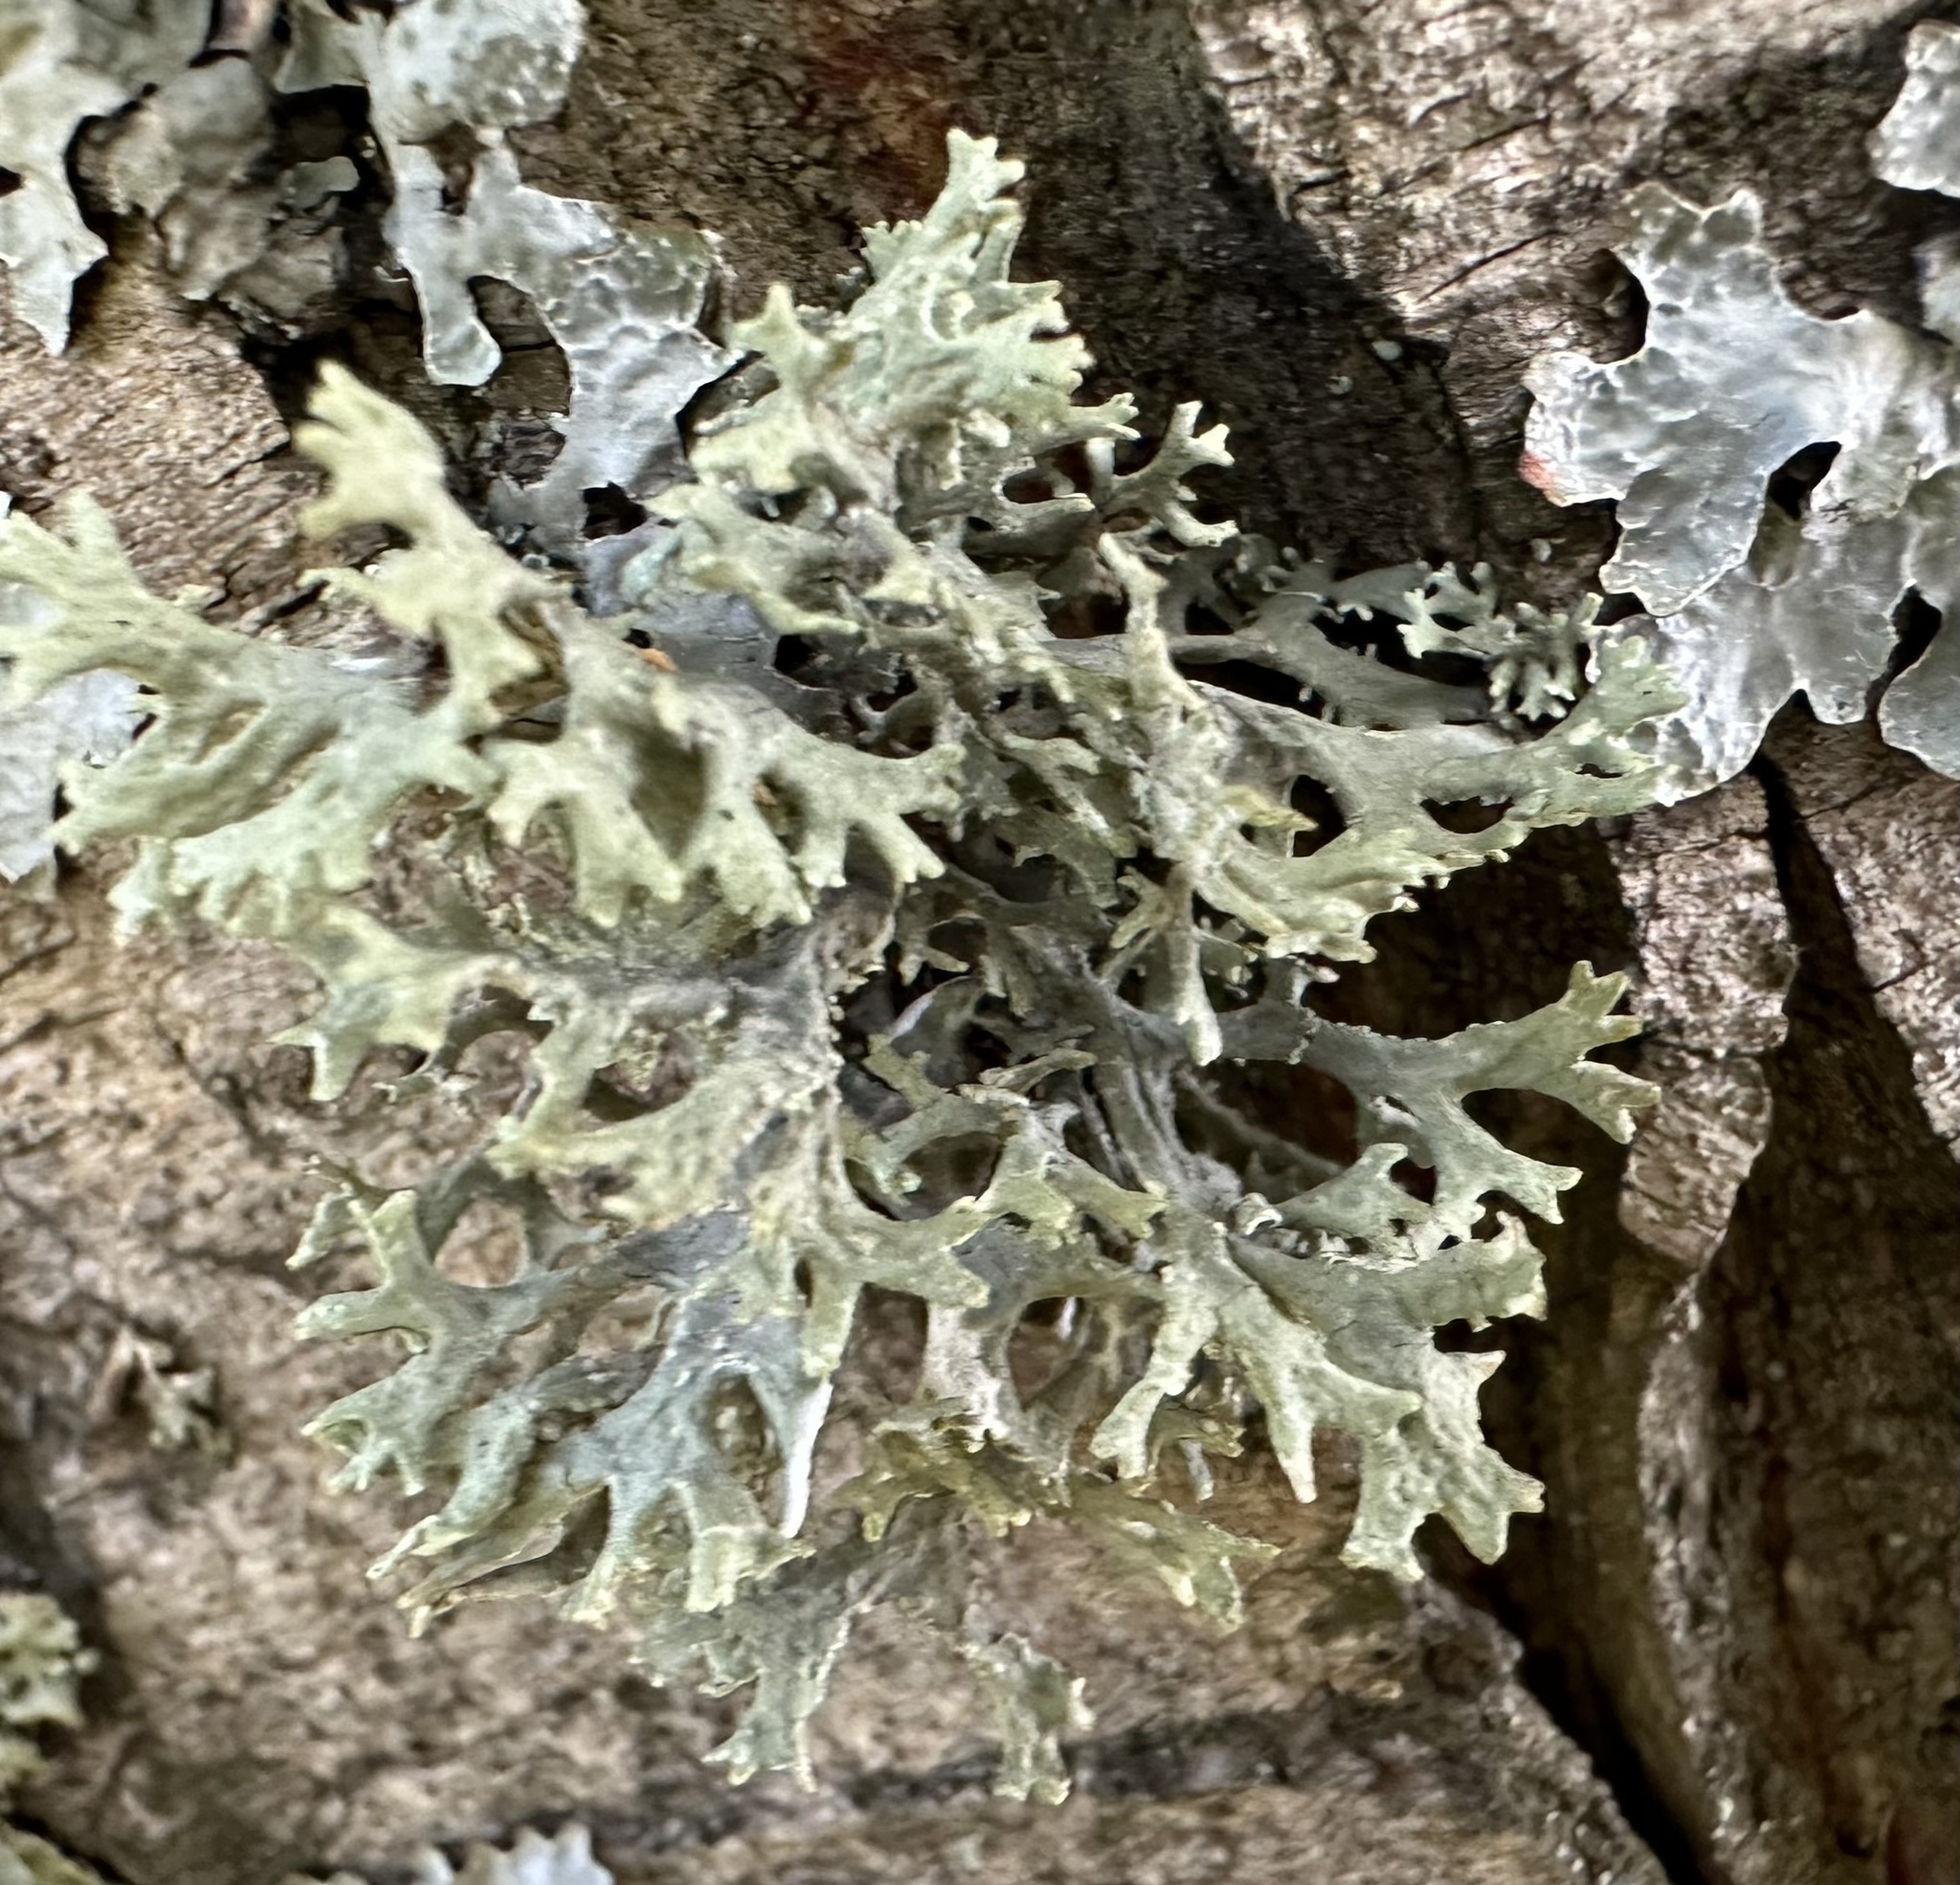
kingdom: Fungi
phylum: Ascomycota
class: Lecanoromycetes
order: Lecanorales
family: Parmeliaceae
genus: Evernia
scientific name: Evernia prunastri
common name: Oak moss
